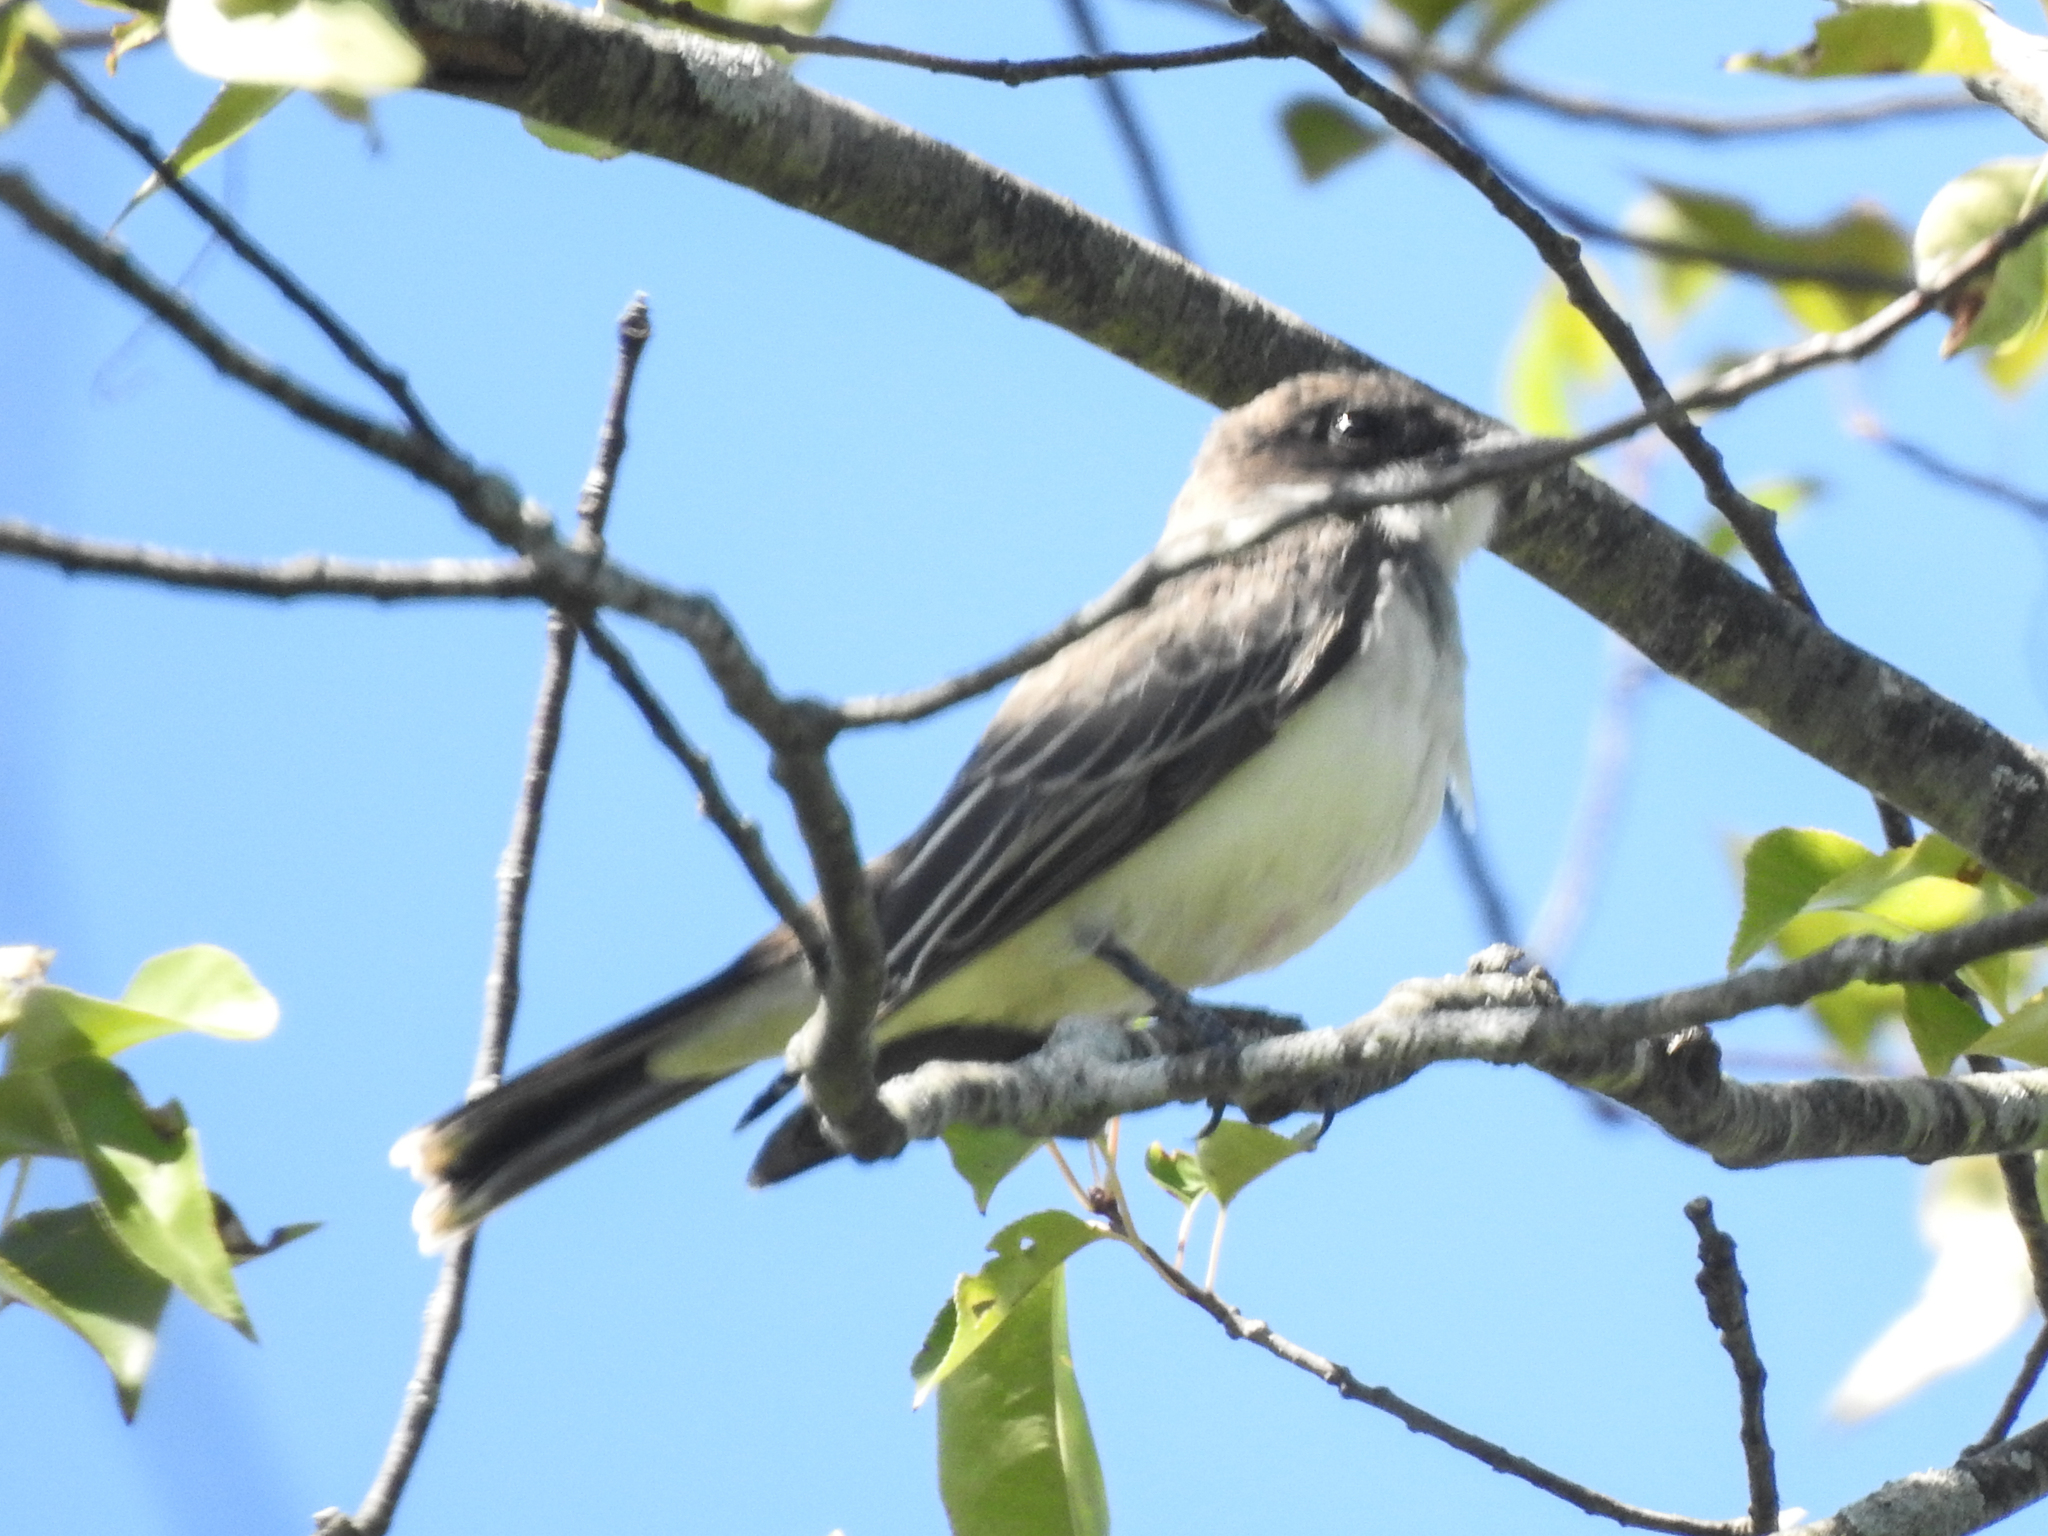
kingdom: Animalia
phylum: Chordata
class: Aves
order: Passeriformes
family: Tyrannidae
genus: Tyrannus
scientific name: Tyrannus tyrannus
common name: Eastern kingbird
